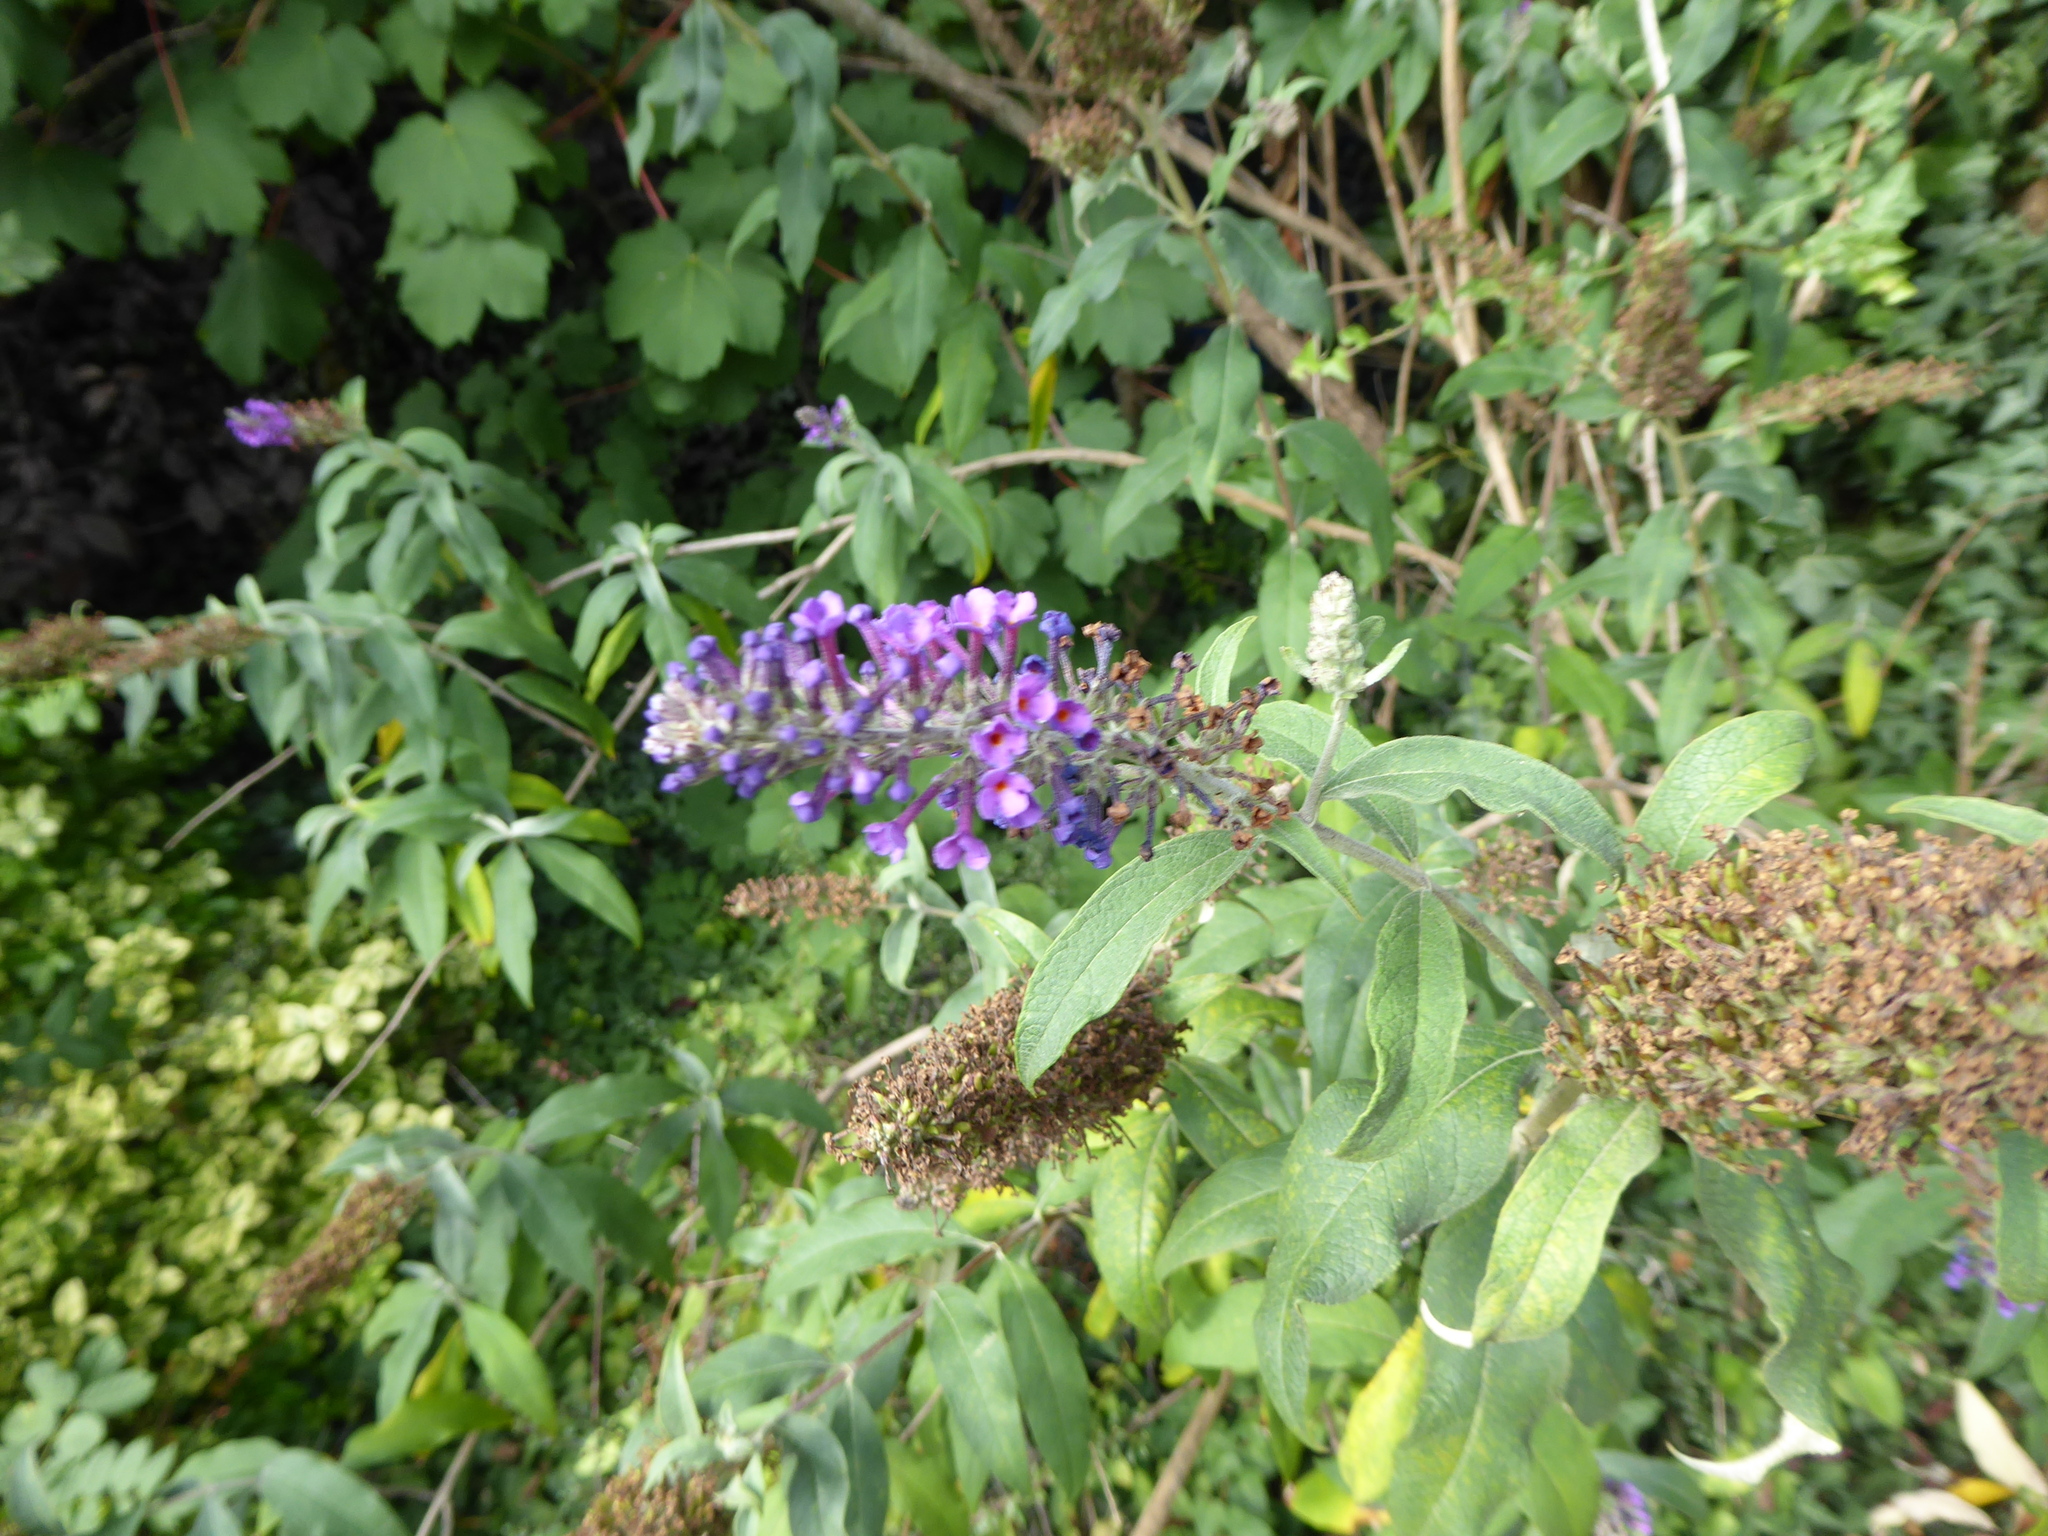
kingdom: Plantae
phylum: Tracheophyta
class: Magnoliopsida
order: Lamiales
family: Scrophulariaceae
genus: Buddleja
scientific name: Buddleja davidii
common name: Butterfly-bush
